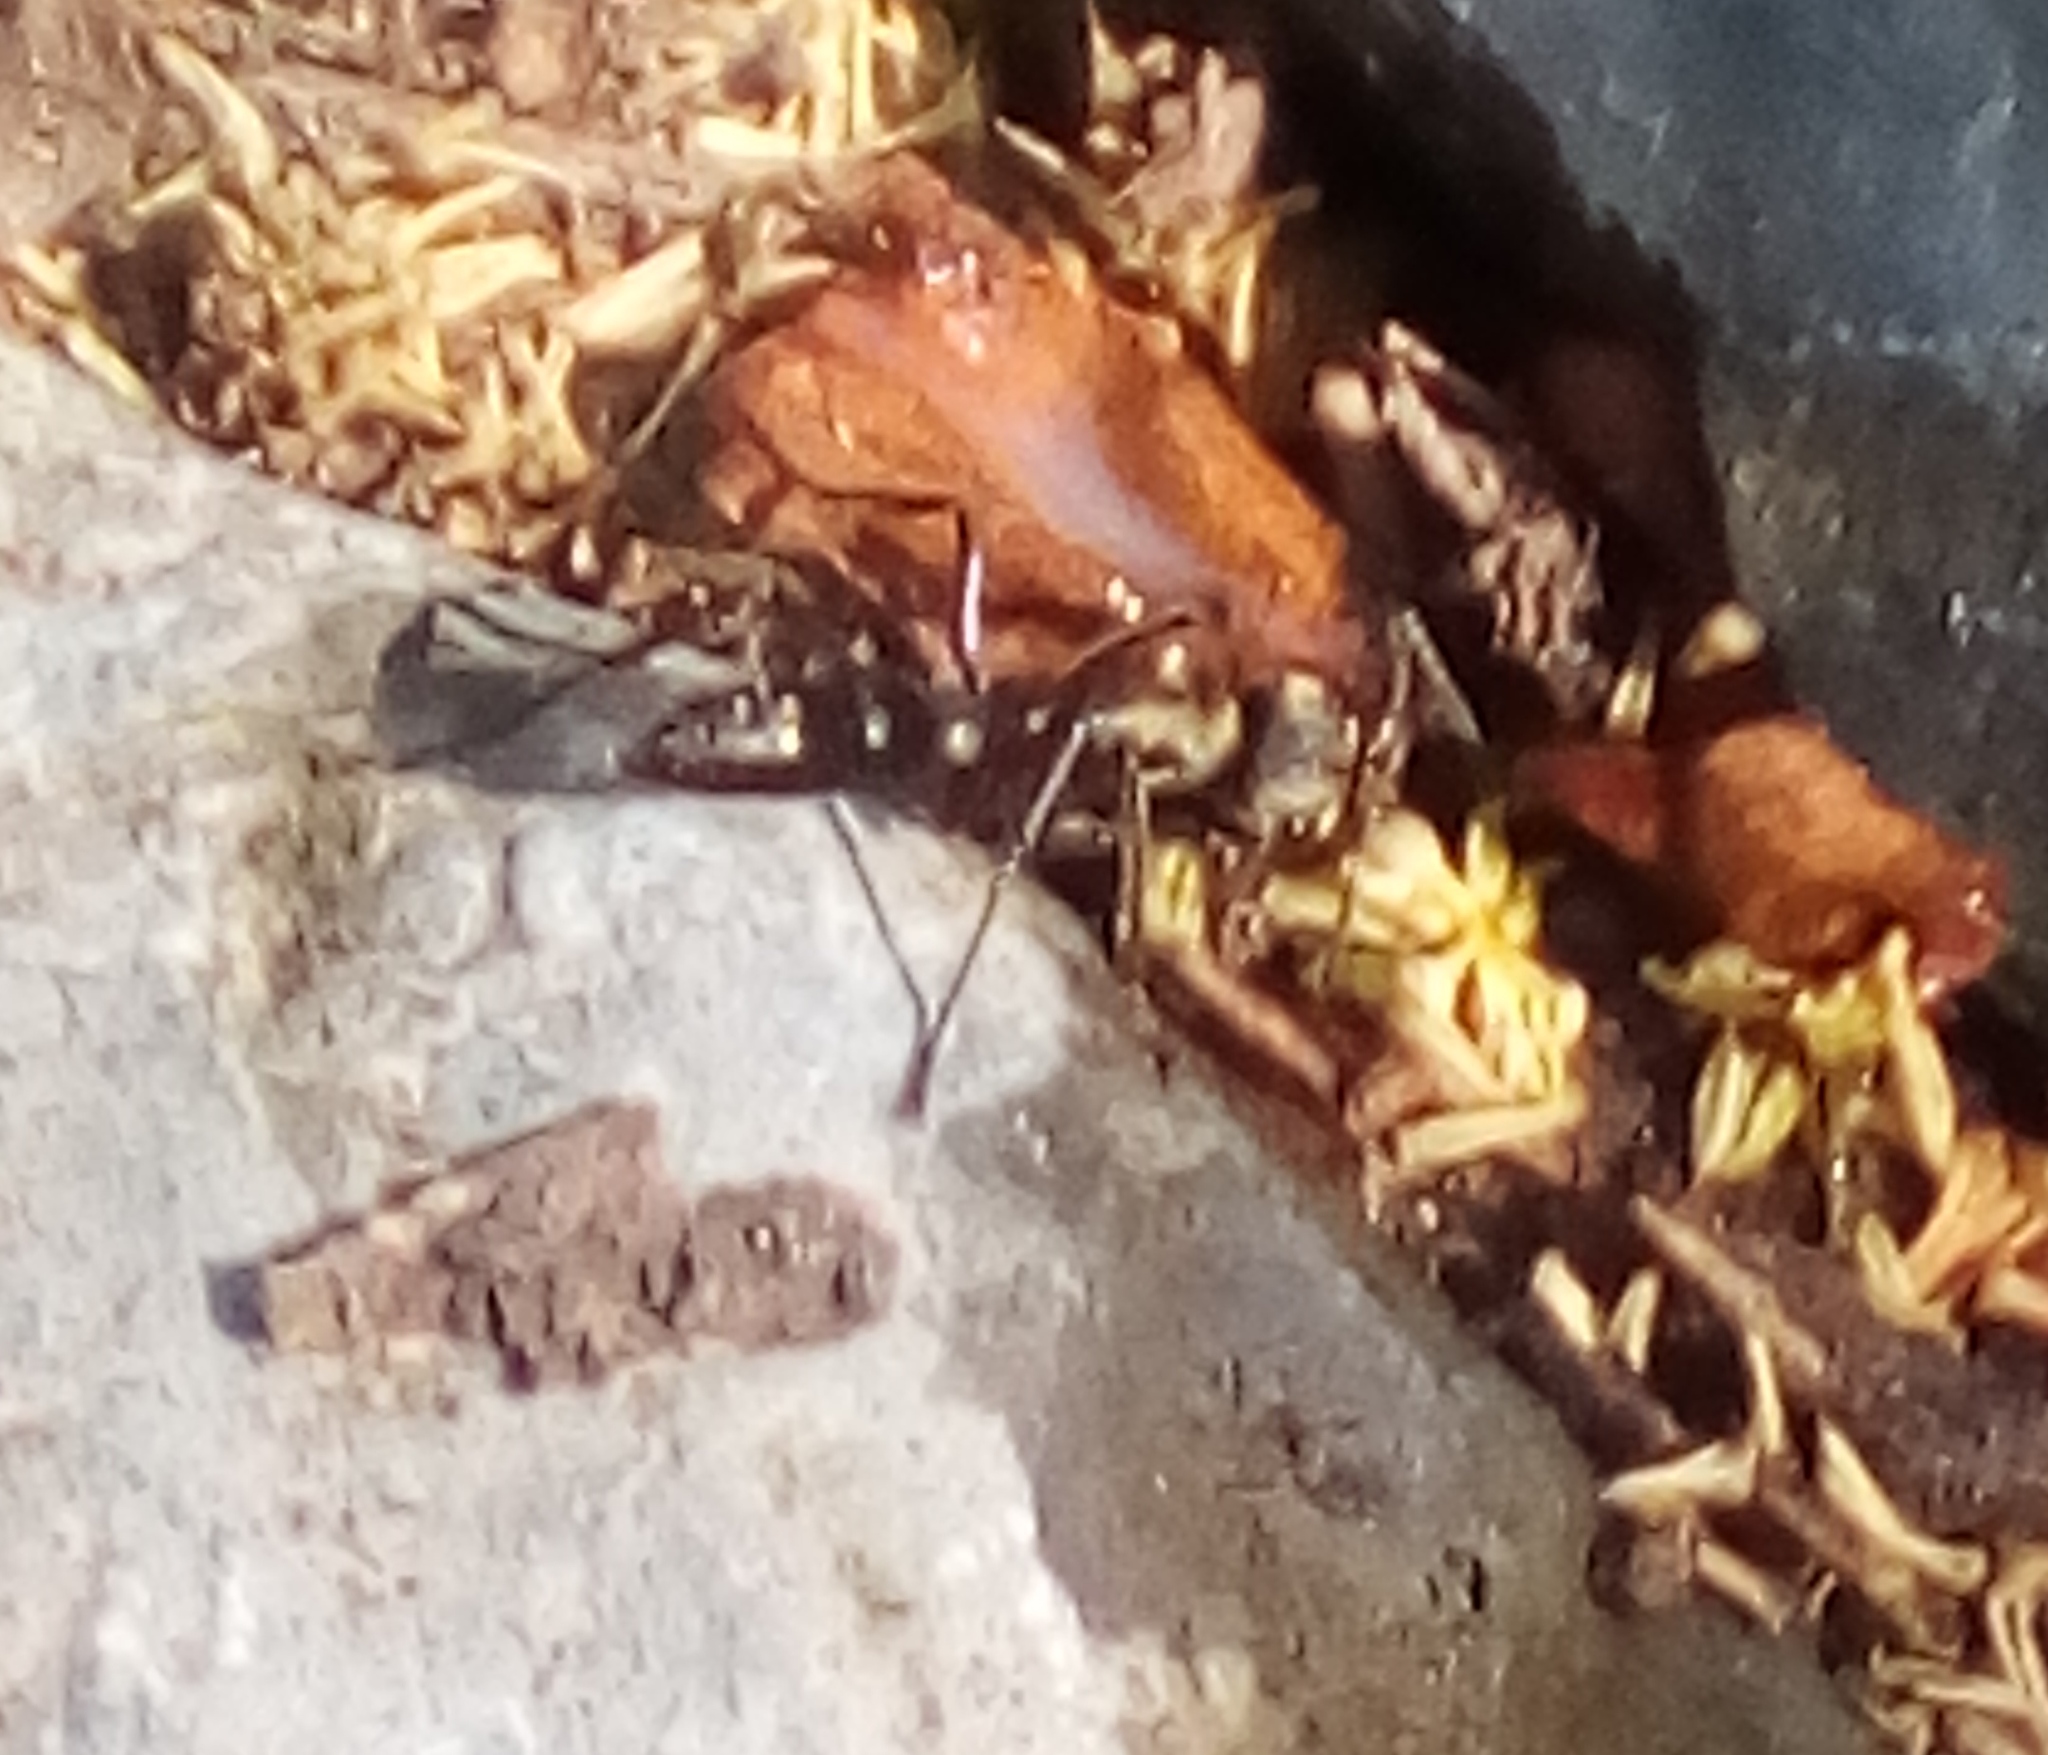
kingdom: Animalia
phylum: Arthropoda
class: Insecta
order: Hymenoptera
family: Formicidae
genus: Pachycondyla
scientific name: Pachycondyla villosa
